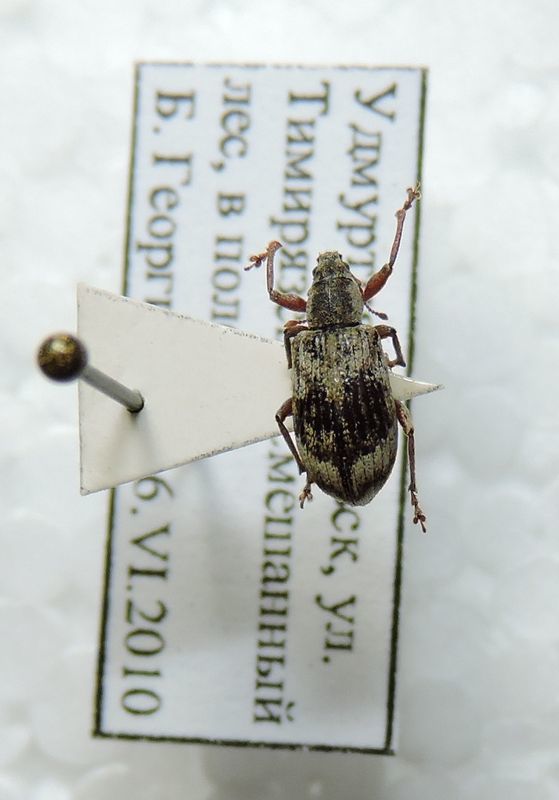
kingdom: Animalia
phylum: Arthropoda
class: Insecta
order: Coleoptera
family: Curculionidae
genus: Polydrusus
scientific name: Polydrusus tereticollis
